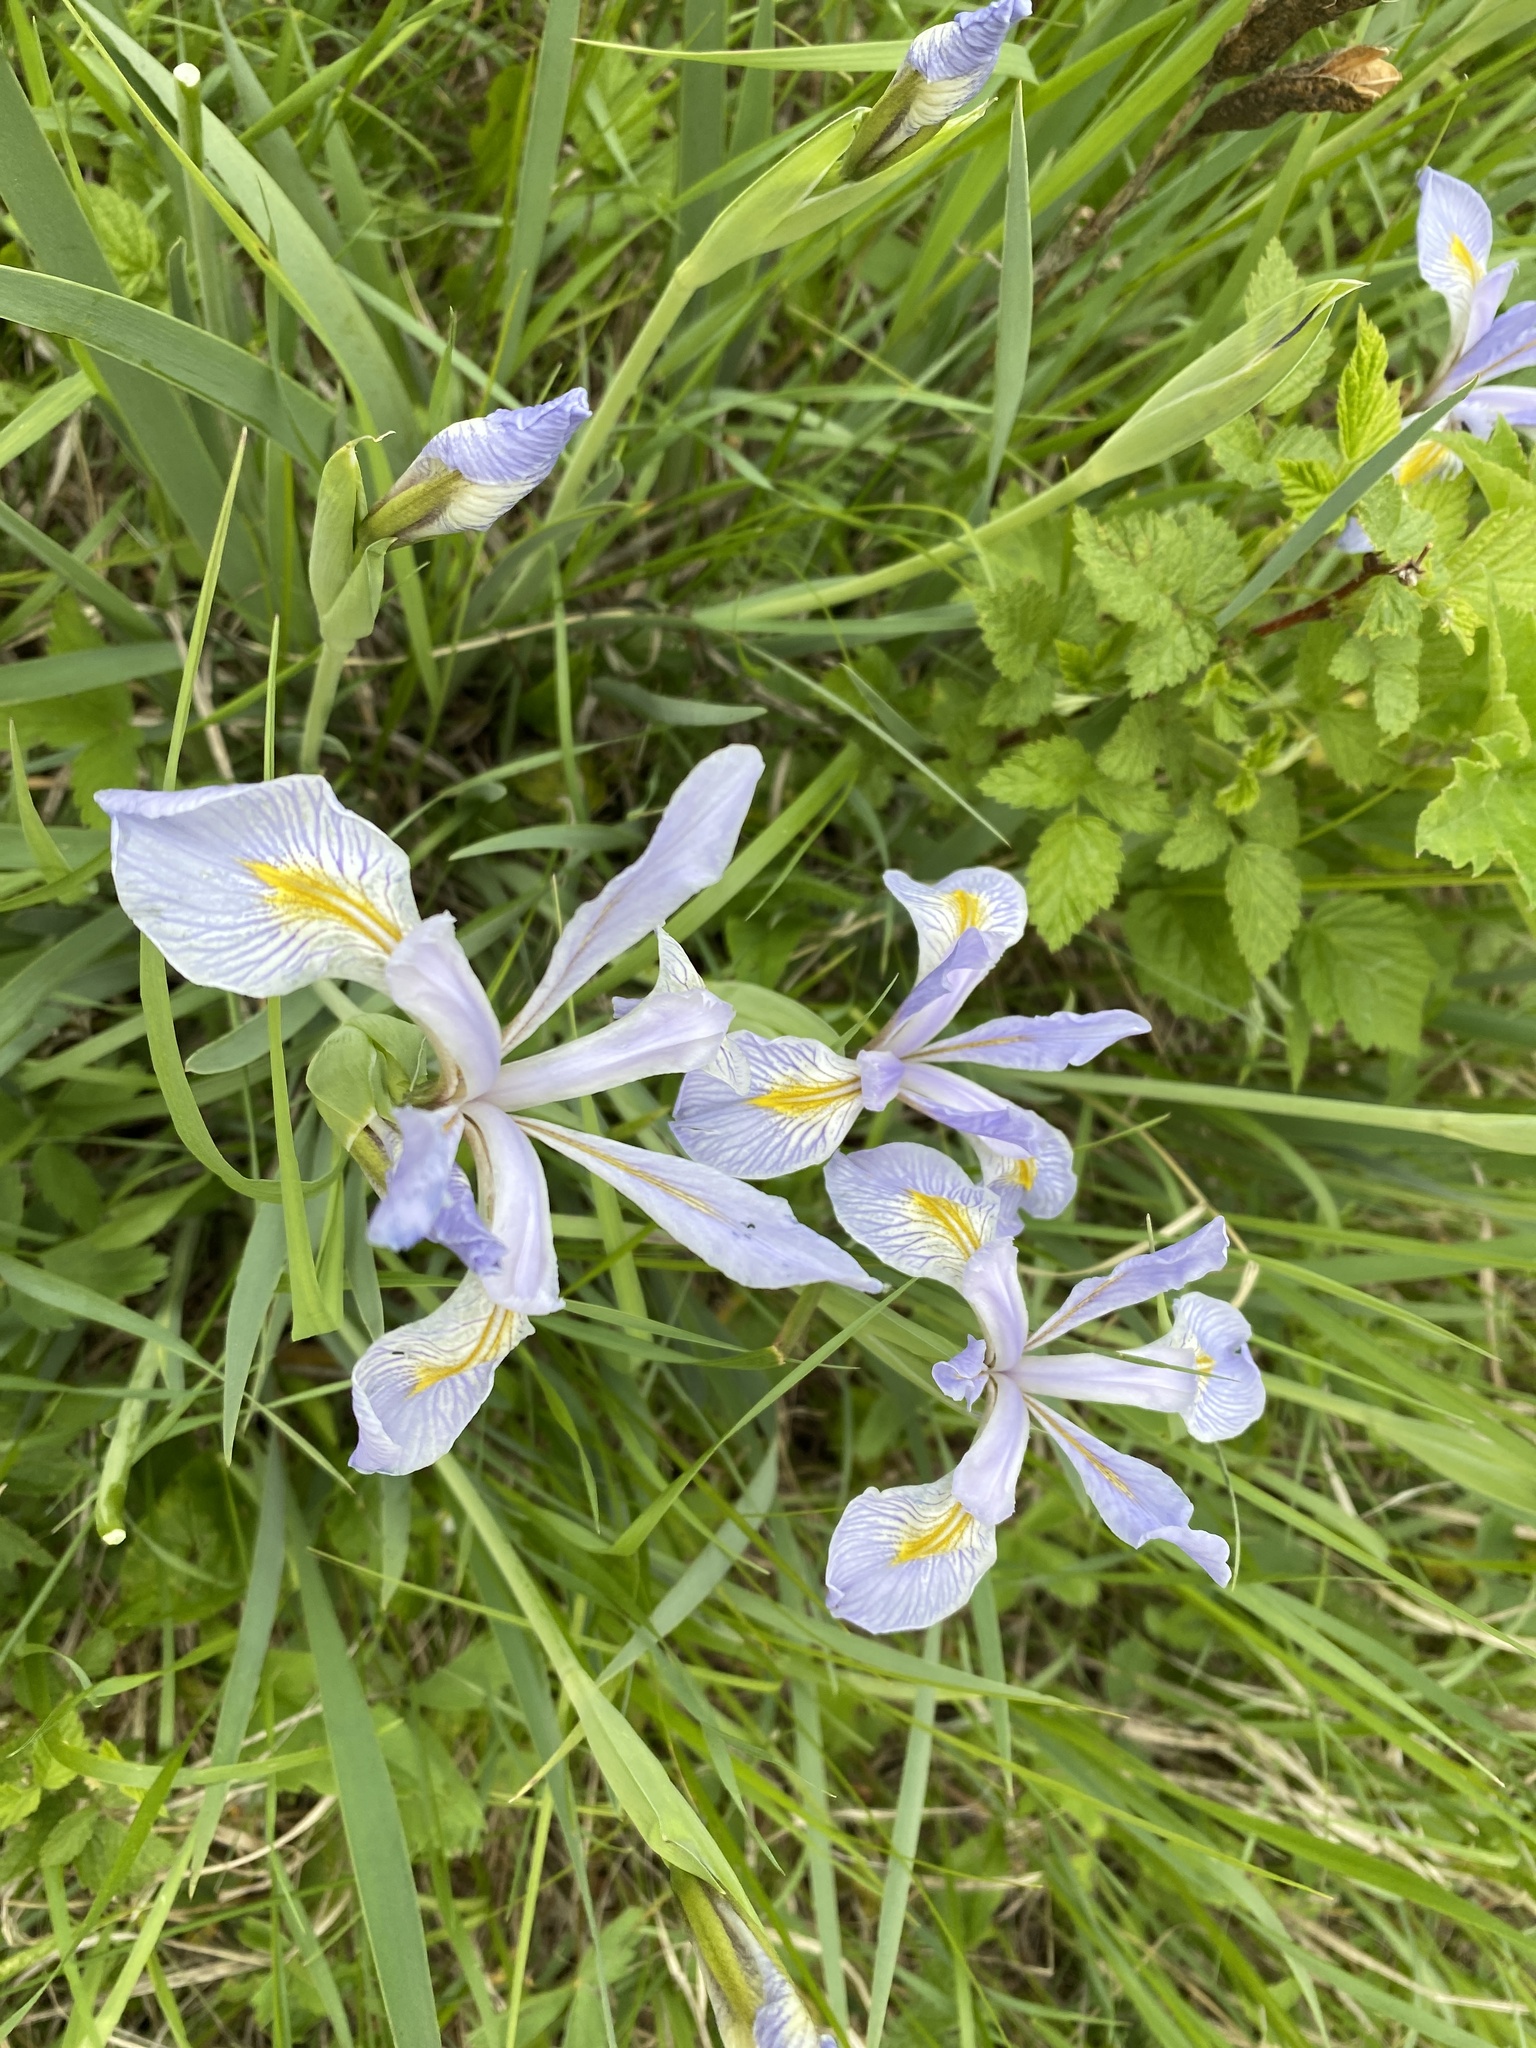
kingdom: Plantae
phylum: Tracheophyta
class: Liliopsida
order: Asparagales
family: Iridaceae
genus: Iris
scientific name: Iris missouriensis
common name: Rocky mountain iris
